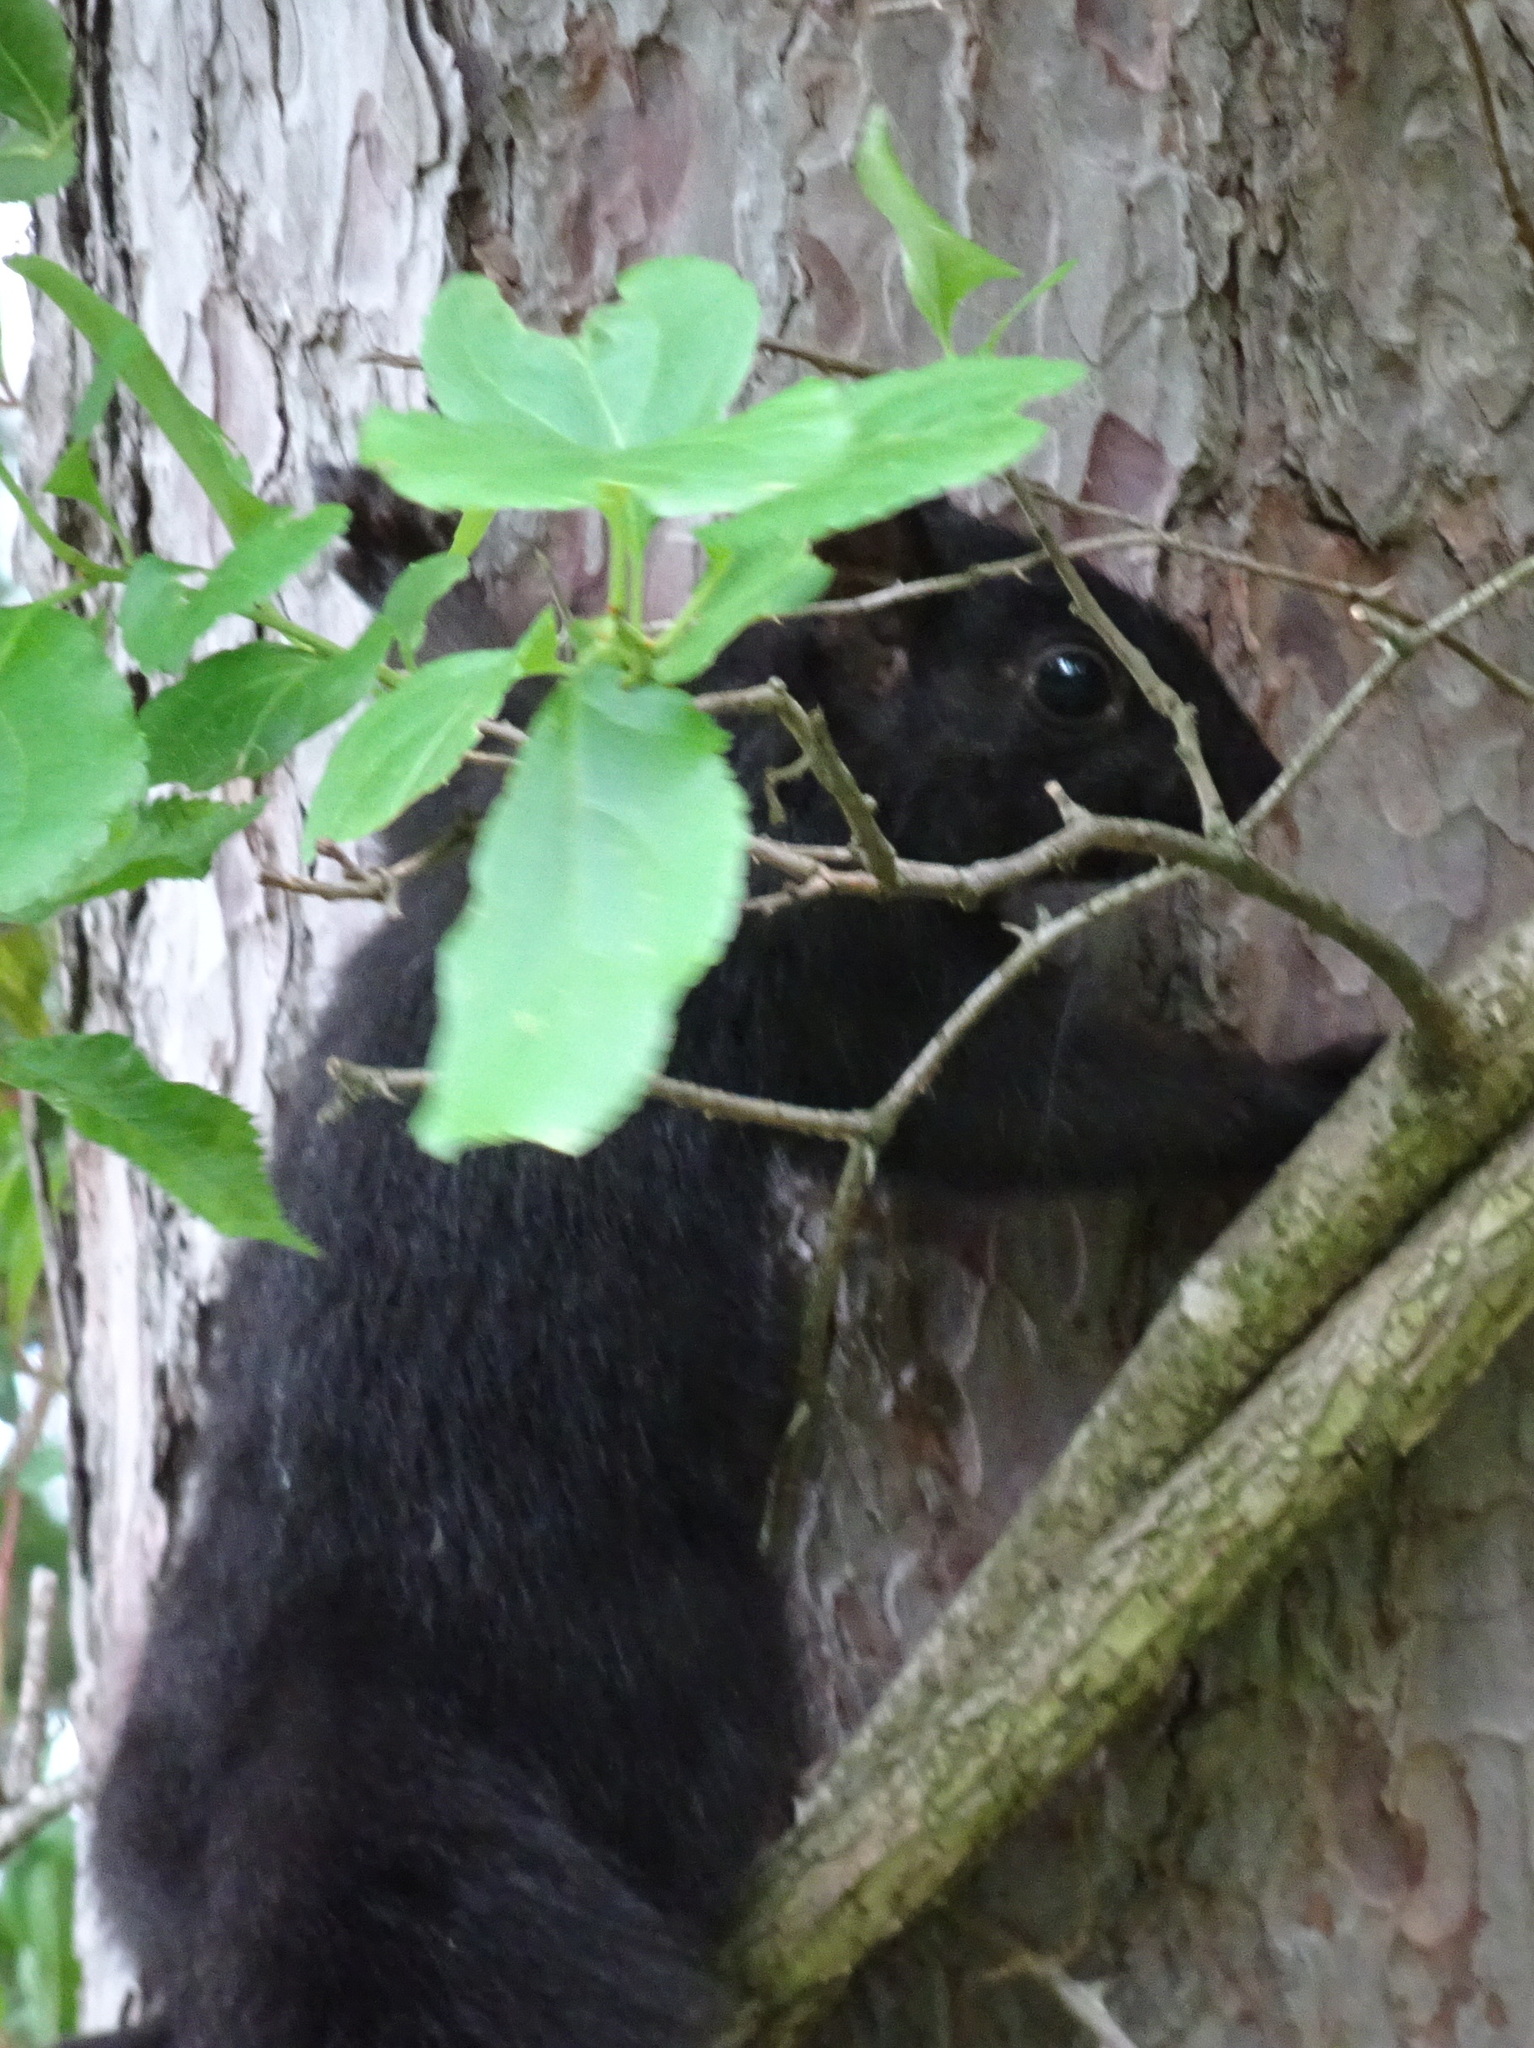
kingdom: Animalia
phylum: Chordata
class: Mammalia
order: Rodentia
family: Sciuridae
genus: Sciurus
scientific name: Sciurus carolinensis
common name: Eastern gray squirrel
